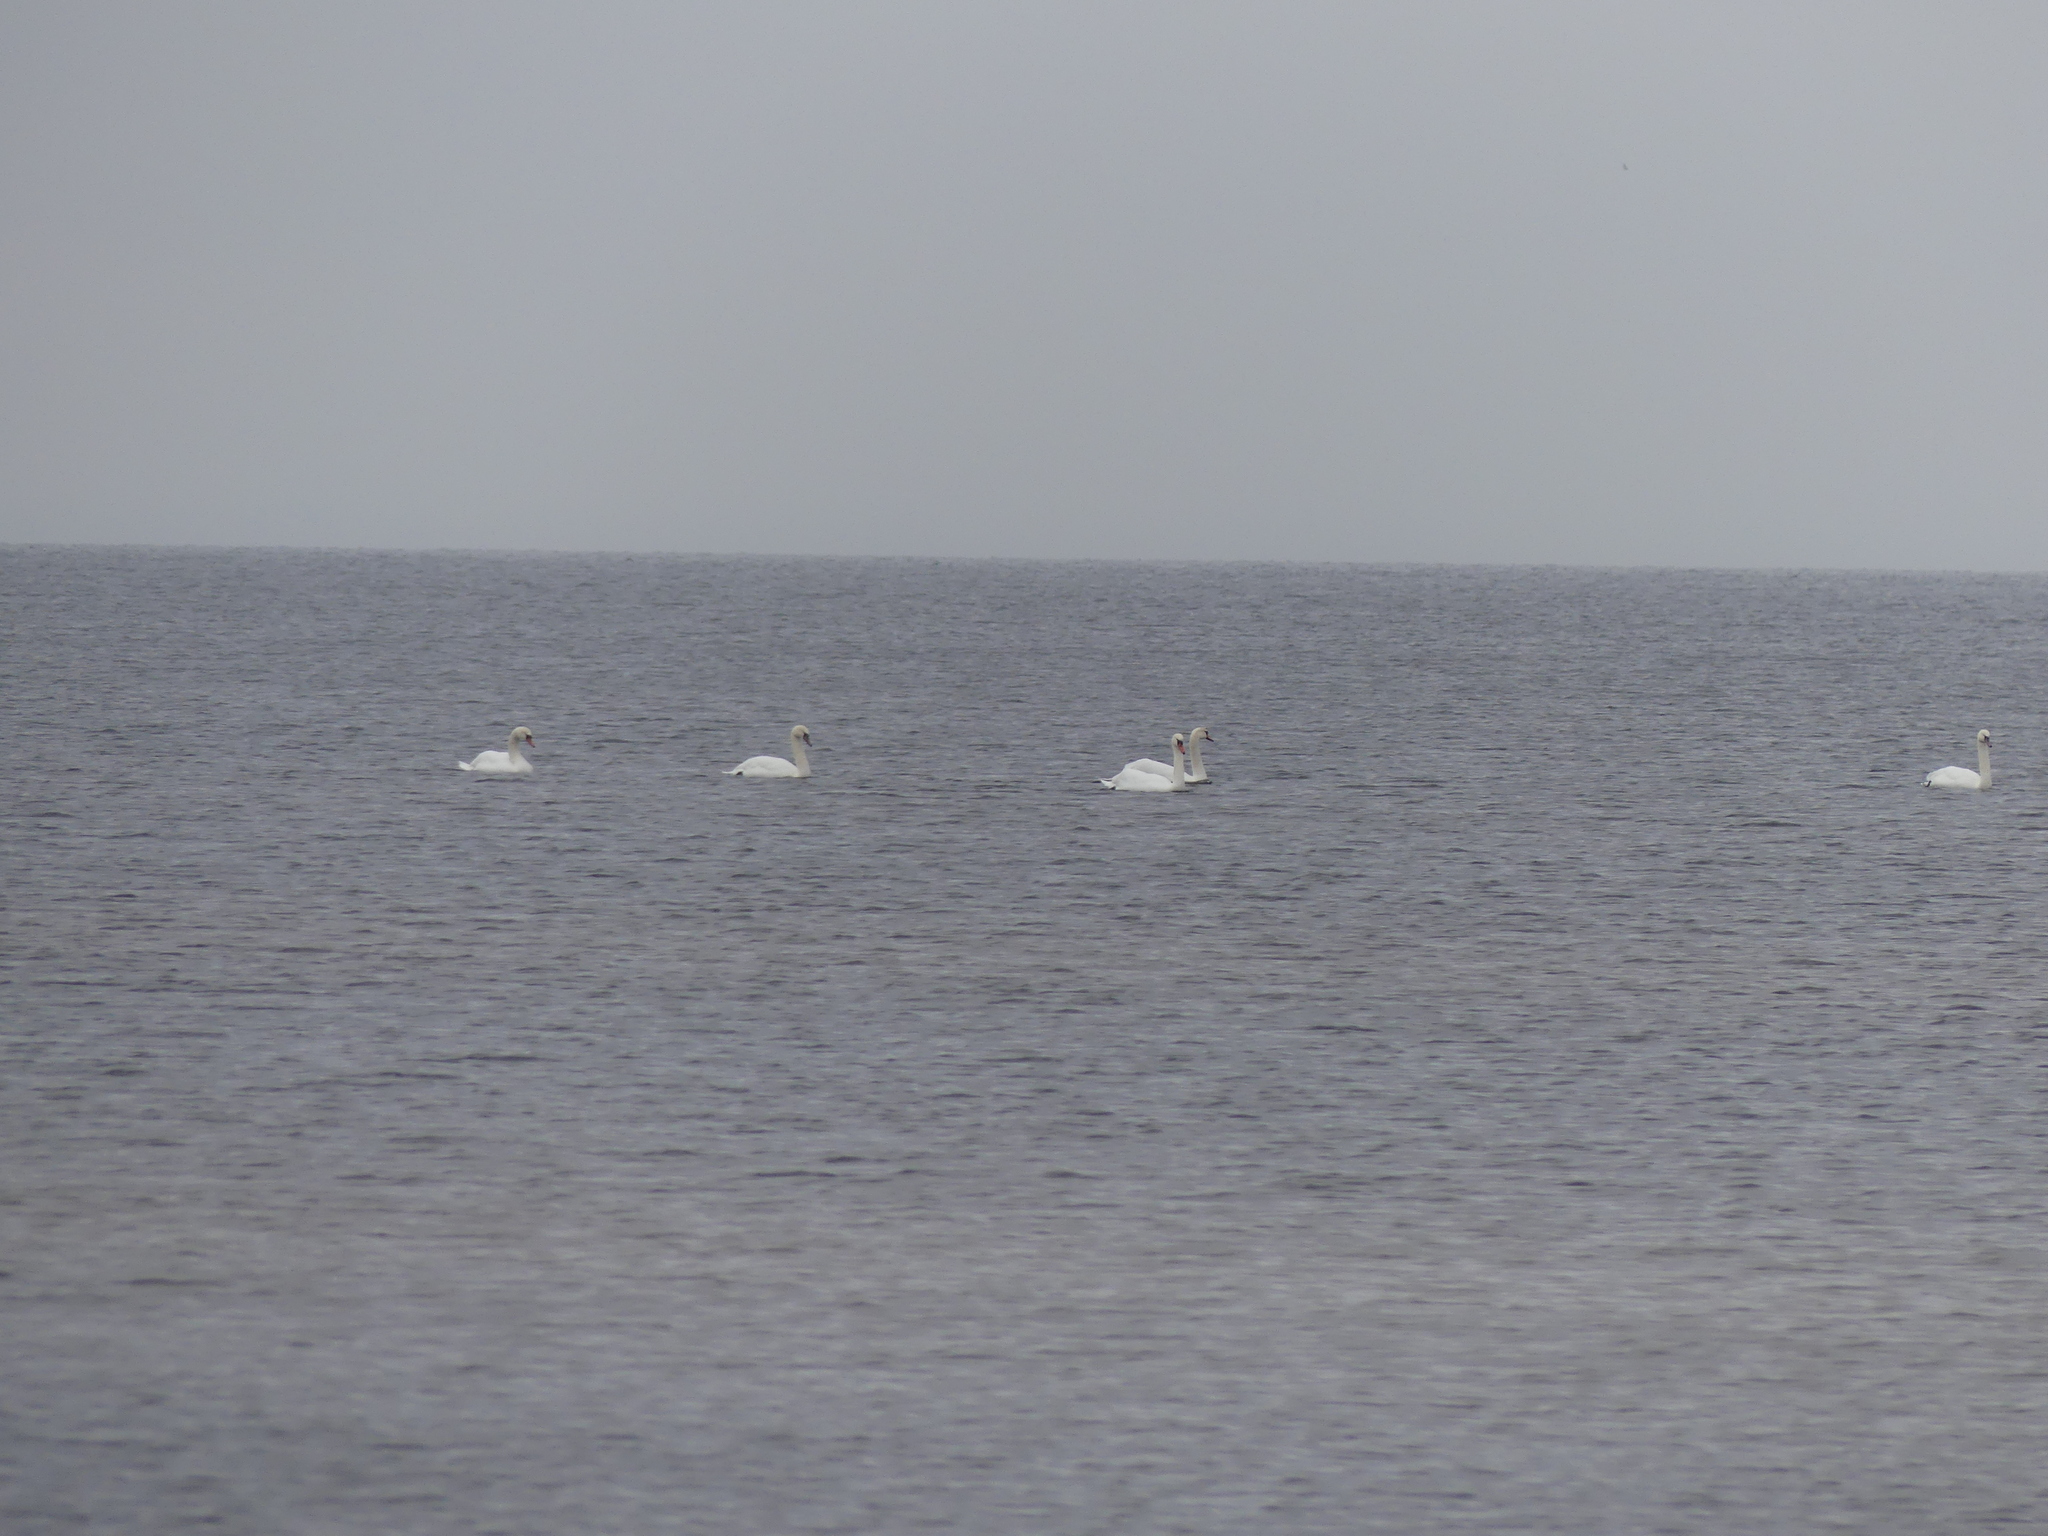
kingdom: Animalia
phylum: Chordata
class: Aves
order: Anseriformes
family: Anatidae
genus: Cygnus
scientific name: Cygnus olor
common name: Mute swan
